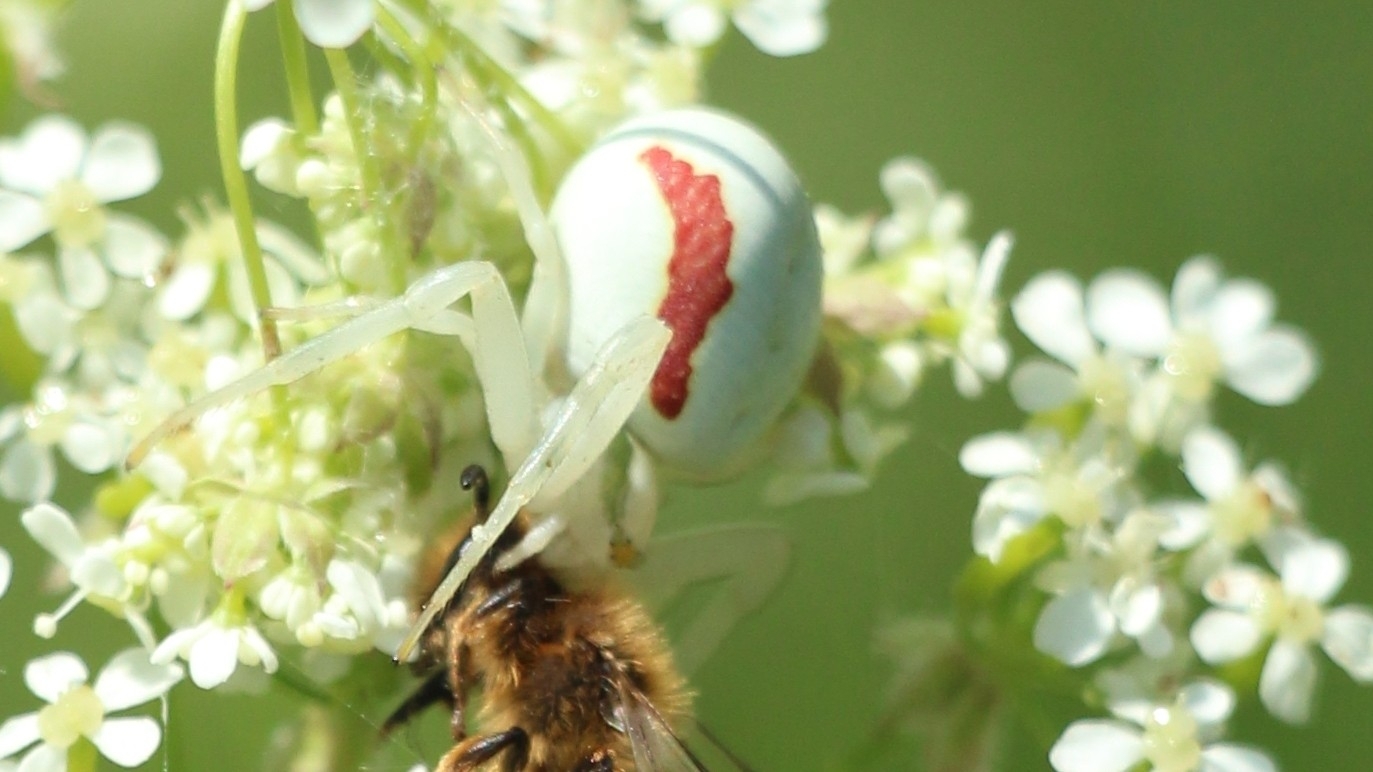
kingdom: Animalia
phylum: Arthropoda
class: Arachnida
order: Araneae
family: Thomisidae
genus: Misumena
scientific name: Misumena vatia
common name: Goldenrod crab spider
